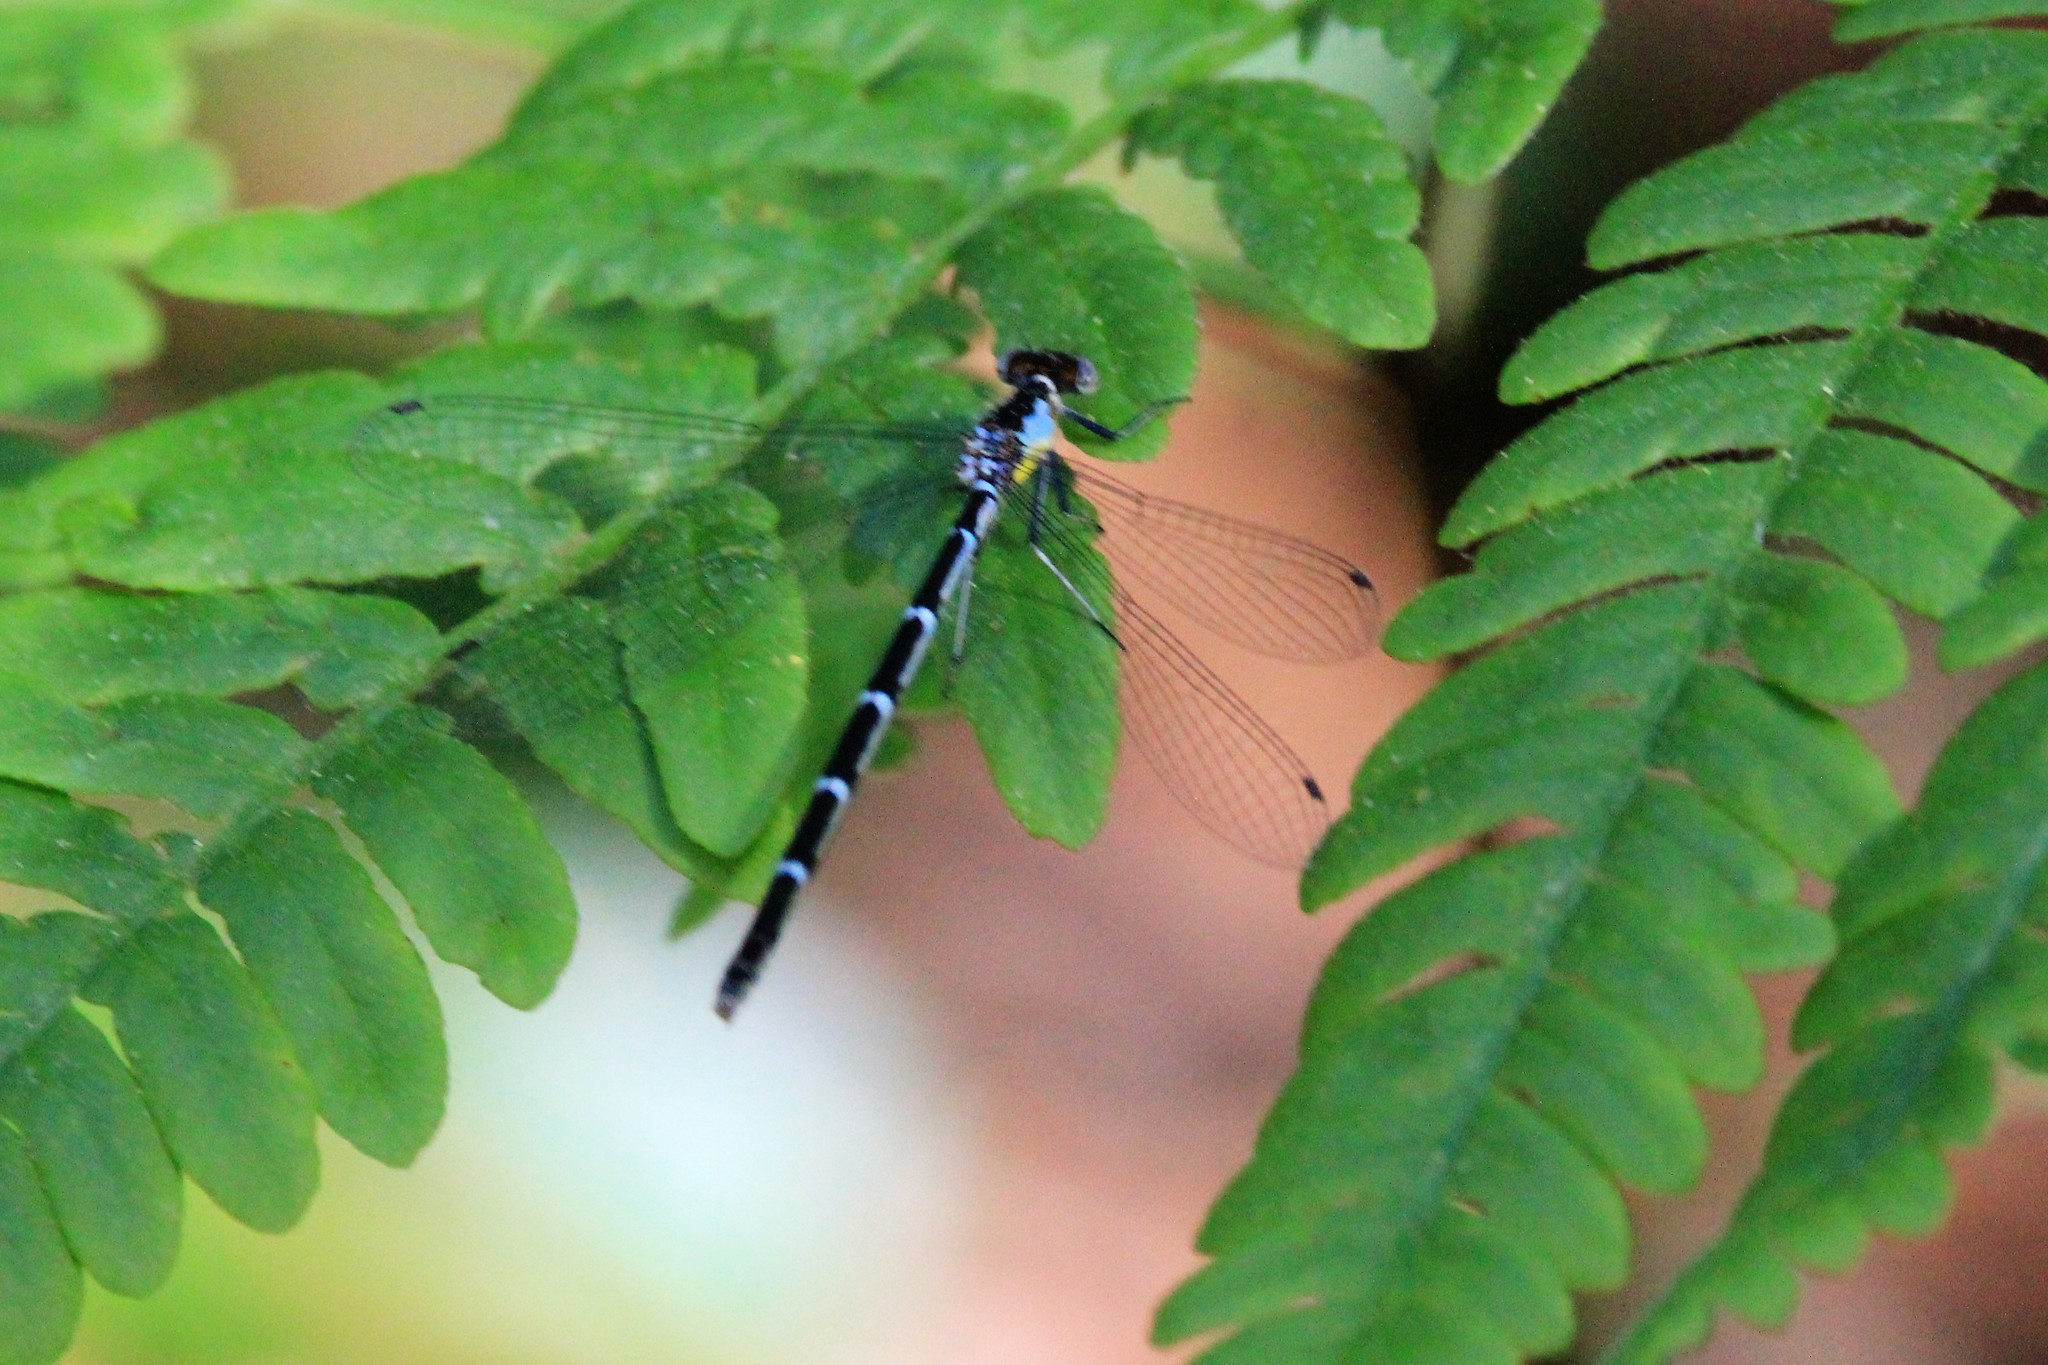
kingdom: Animalia
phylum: Arthropoda
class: Insecta
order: Odonata
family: Coenagrionidae
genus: Chromagrion
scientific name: Chromagrion conditum
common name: Aurora damsel
